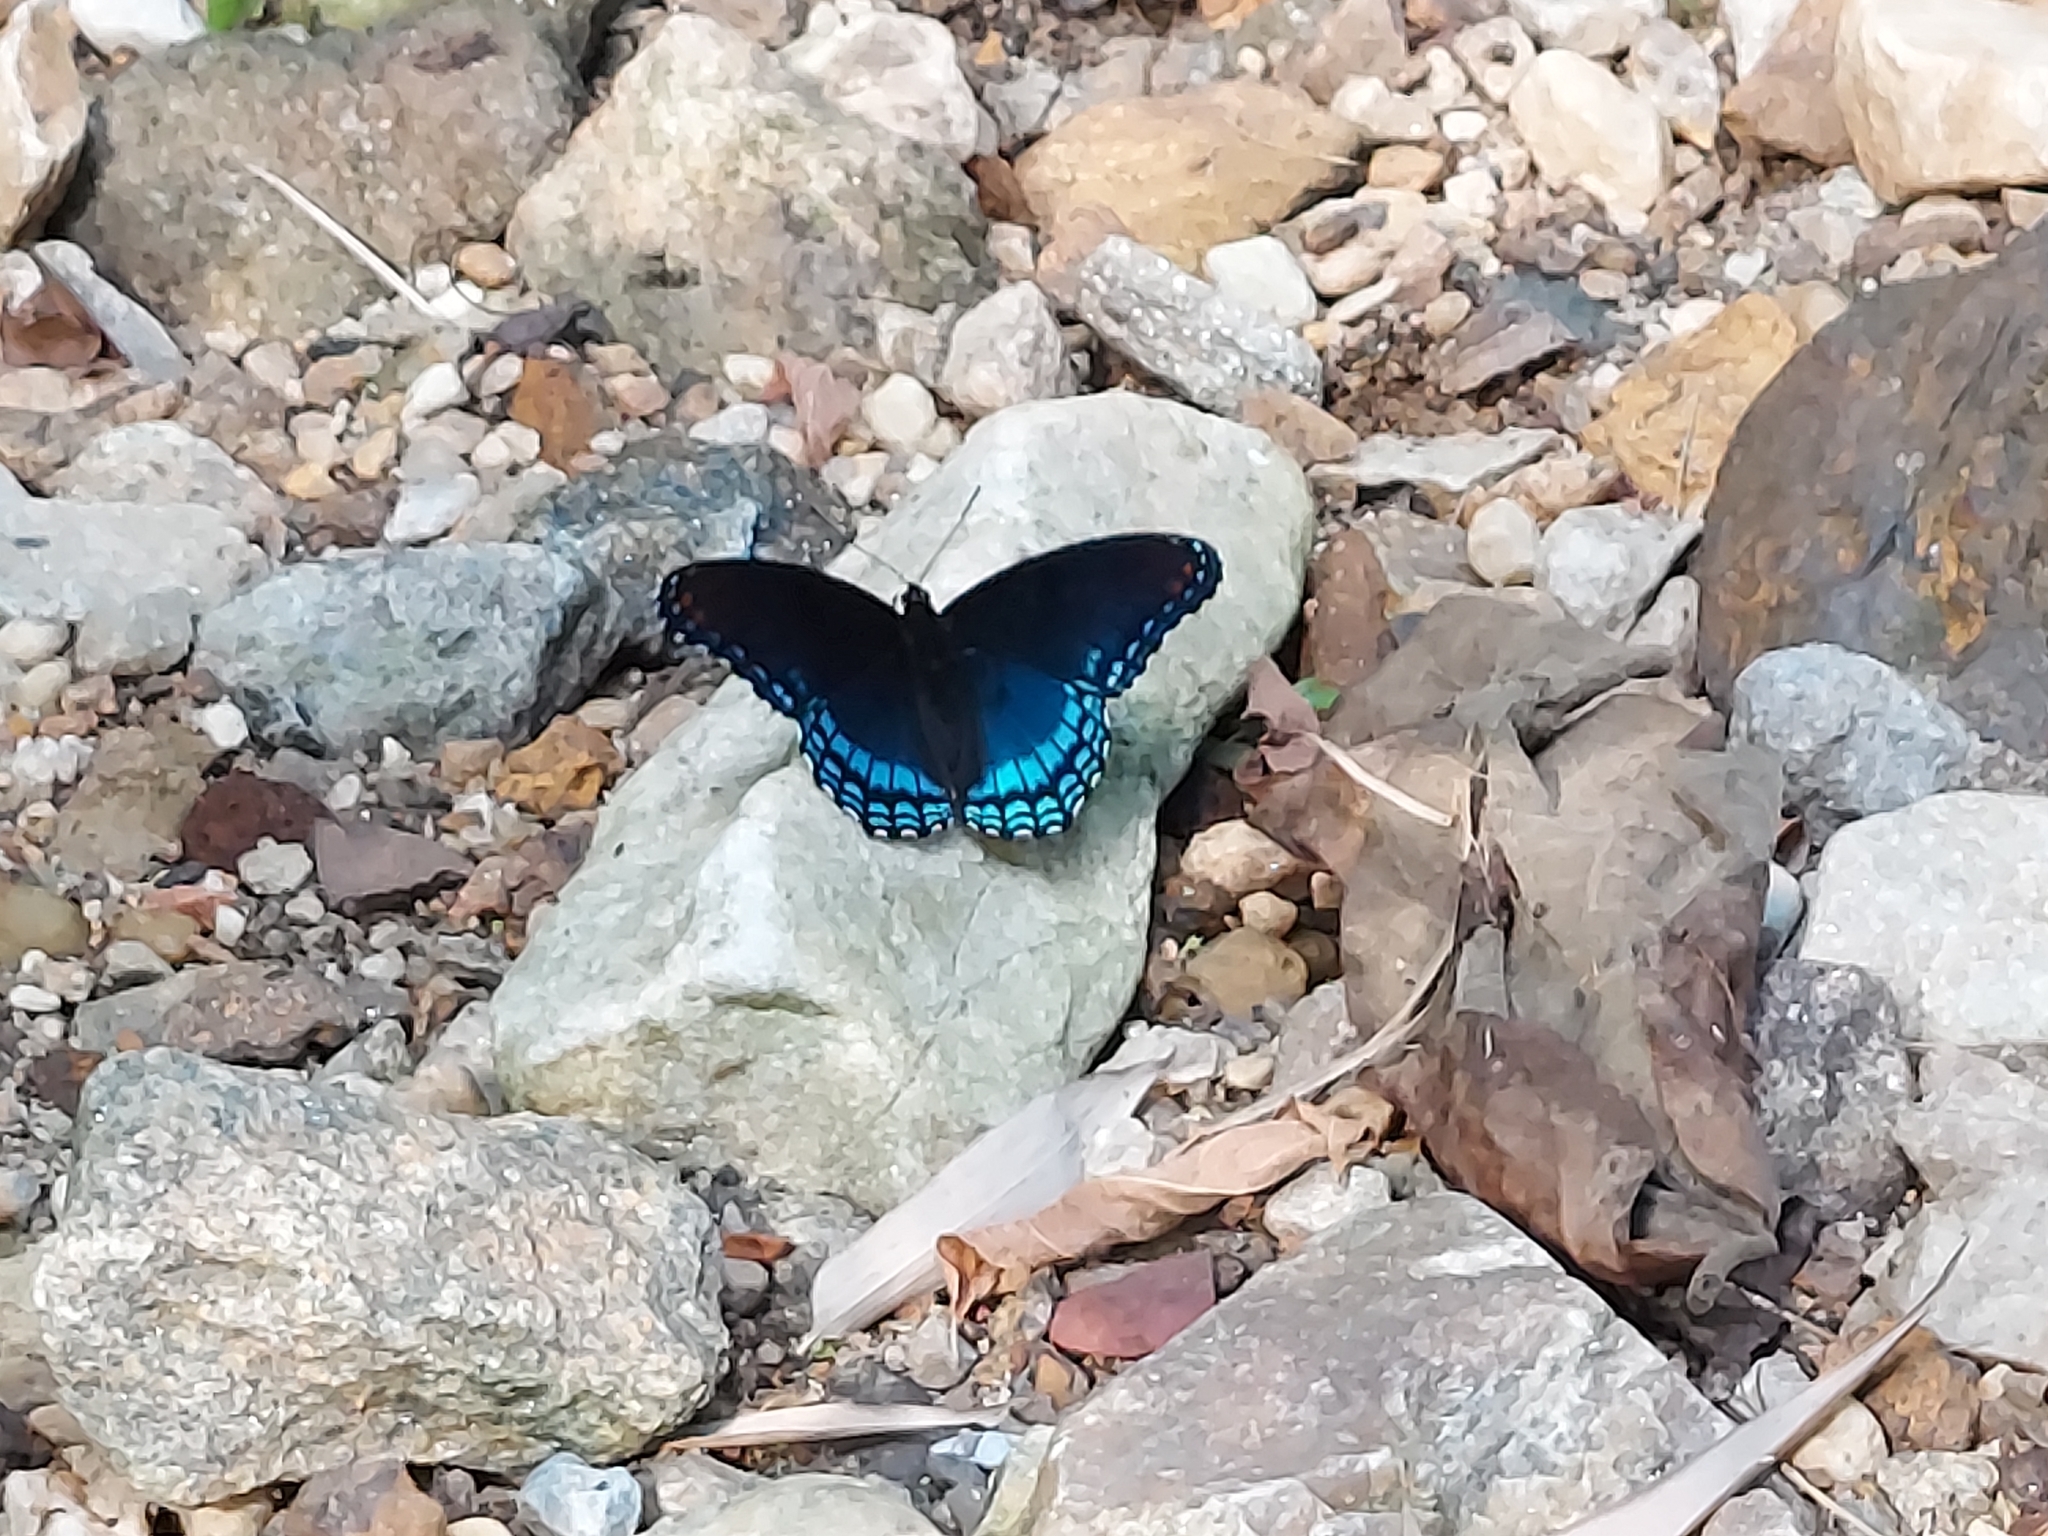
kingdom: Animalia
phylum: Arthropoda
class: Insecta
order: Lepidoptera
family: Nymphalidae
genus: Limenitis
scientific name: Limenitis astyanax
